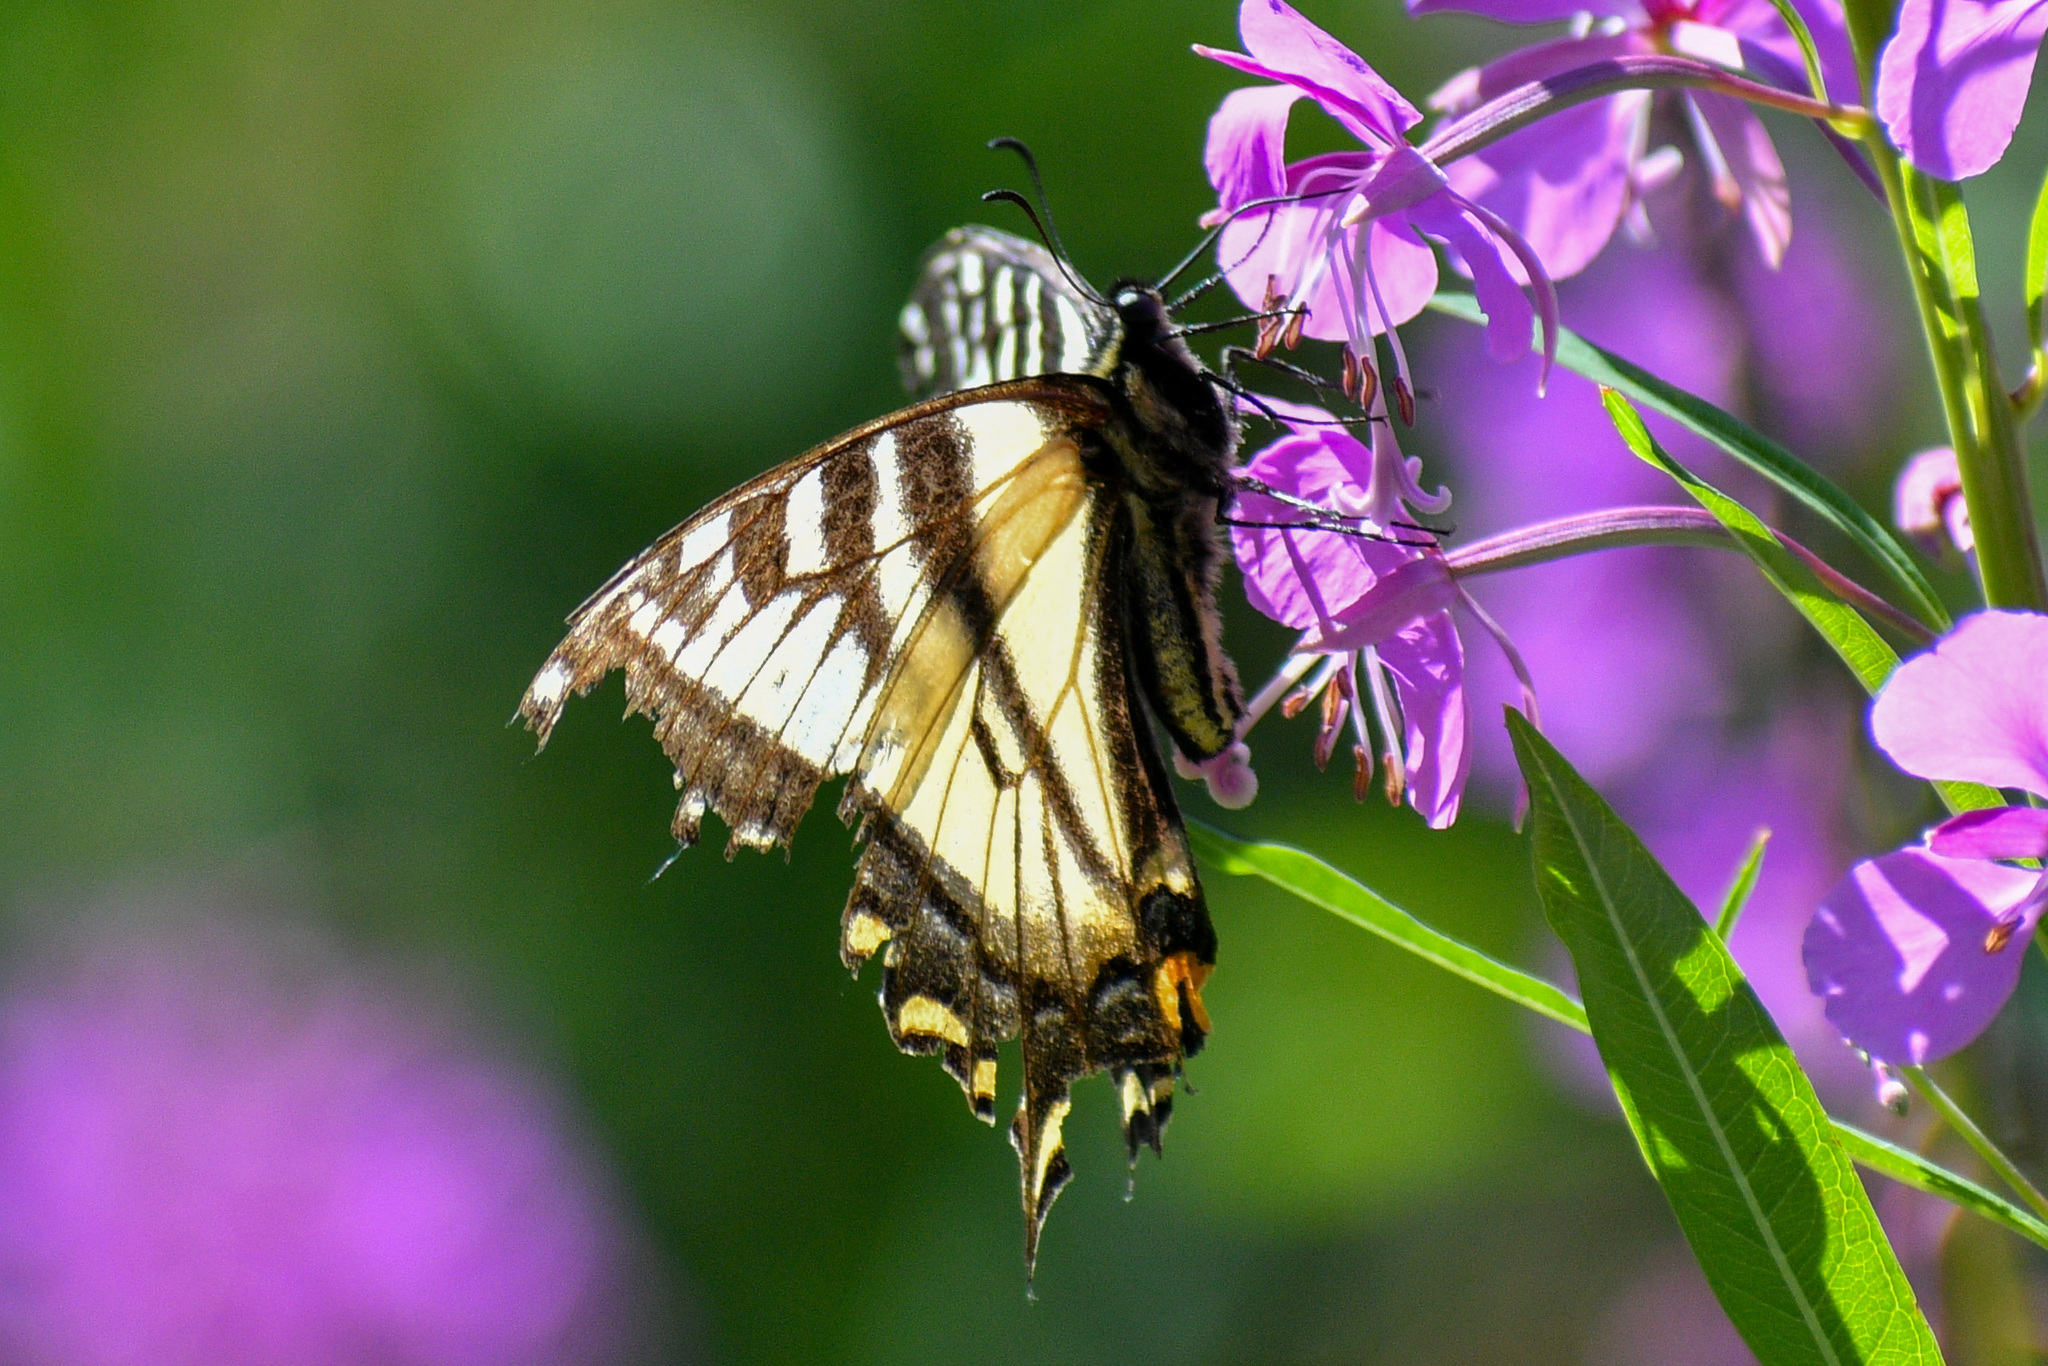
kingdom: Animalia
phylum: Arthropoda
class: Insecta
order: Lepidoptera
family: Papilionidae
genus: Papilio
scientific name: Papilio canadensis
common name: Canadian tiger swallowtail
